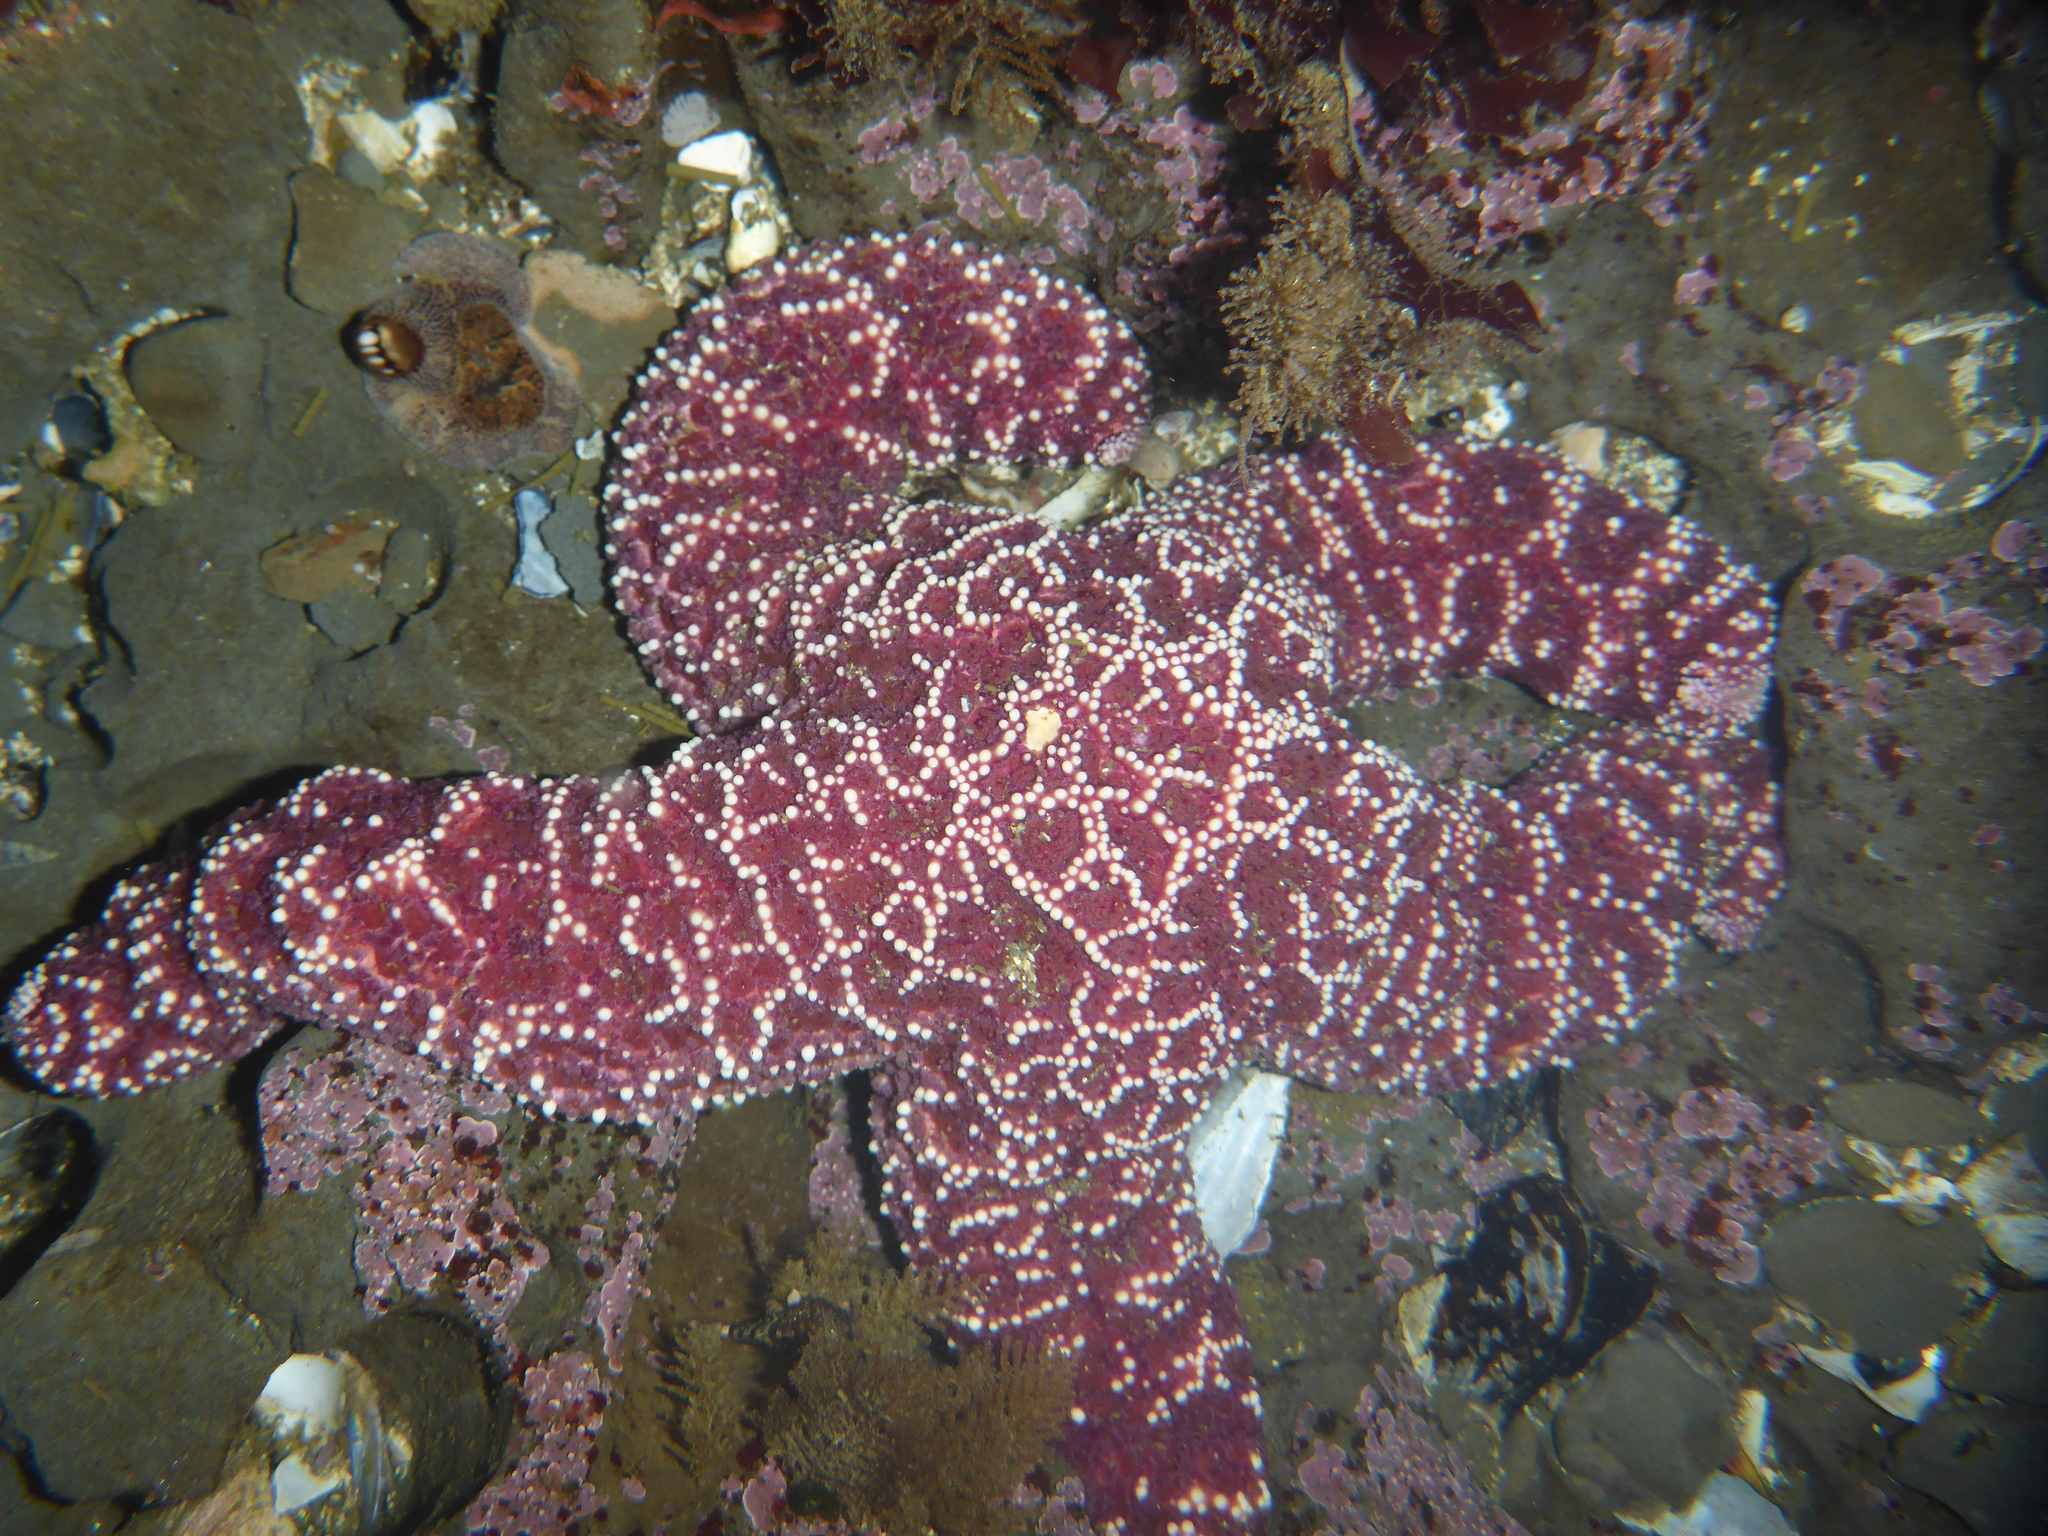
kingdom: Animalia
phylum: Echinodermata
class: Asteroidea
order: Forcipulatida
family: Asteriidae
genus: Pisaster
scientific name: Pisaster ochraceus
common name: Ochre stars
